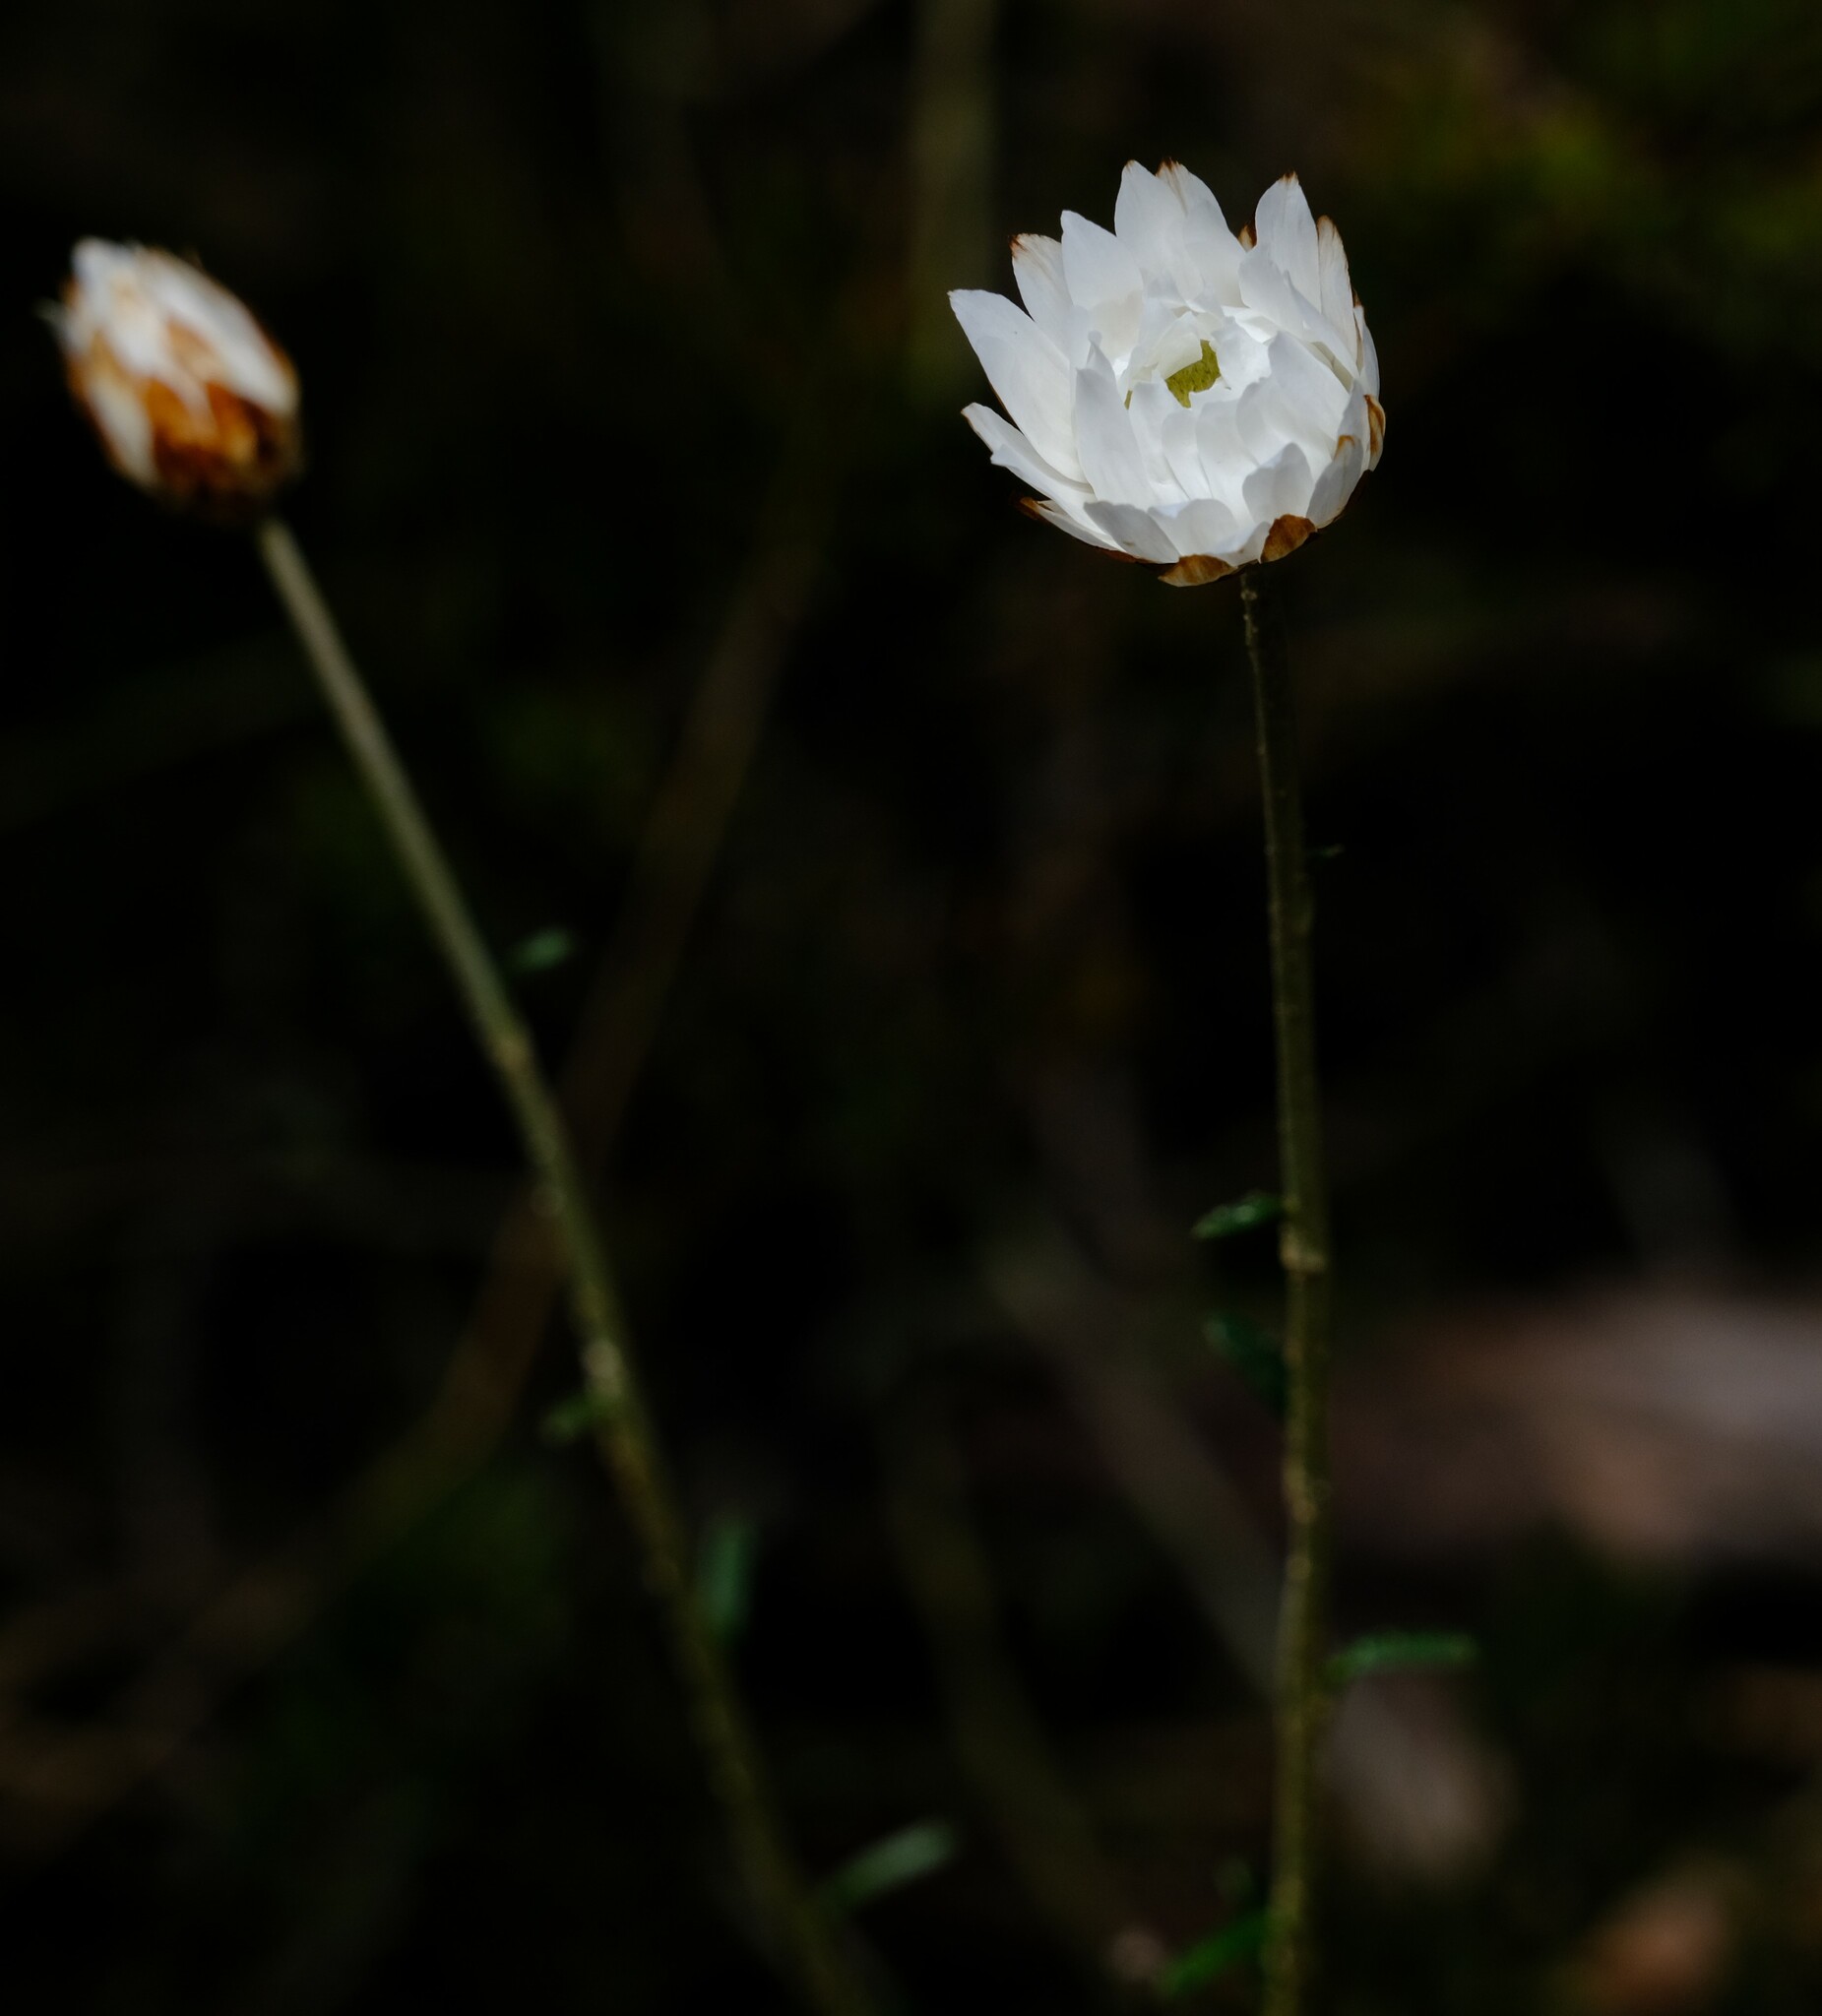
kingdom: Plantae
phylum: Tracheophyta
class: Magnoliopsida
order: Asterales
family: Asteraceae
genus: Argentipallium
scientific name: Argentipallium obtusifolium
